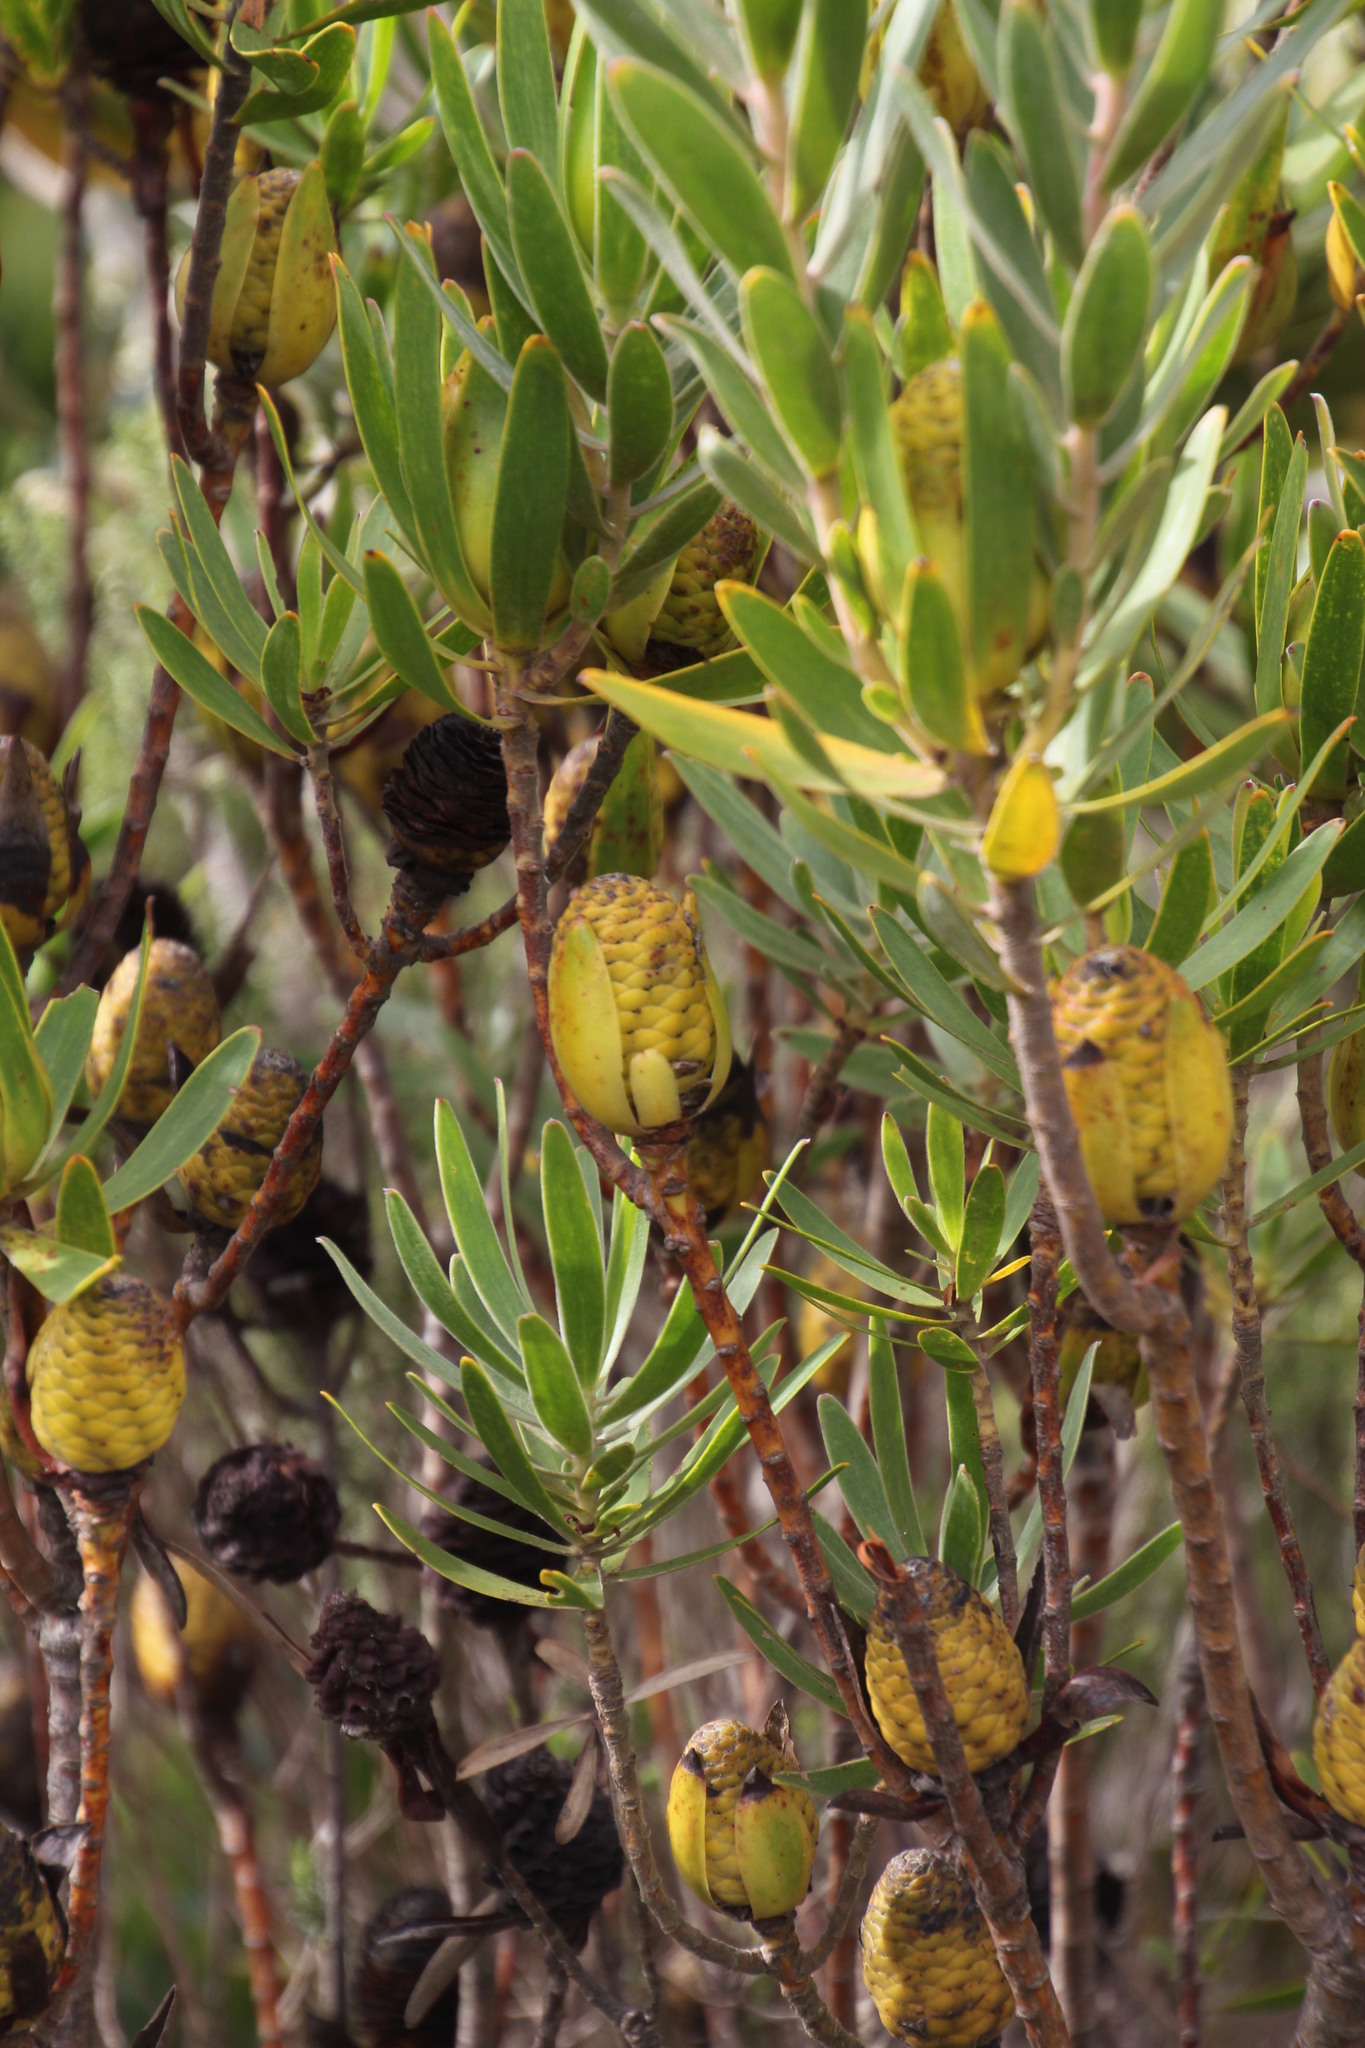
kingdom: Plantae
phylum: Tracheophyta
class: Magnoliopsida
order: Proteales
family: Proteaceae
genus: Leucadendron
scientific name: Leucadendron laureolum
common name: Golden sunshinebush
